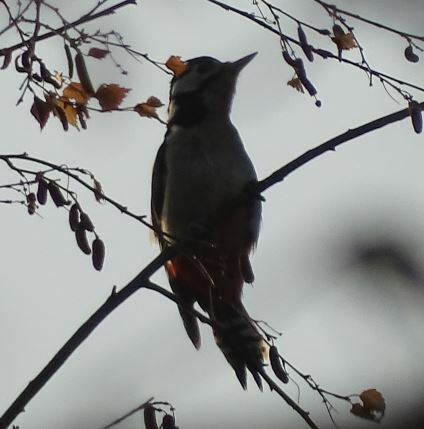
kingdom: Animalia
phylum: Chordata
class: Aves
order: Piciformes
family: Picidae
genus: Dendrocopos
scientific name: Dendrocopos major
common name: Great spotted woodpecker
